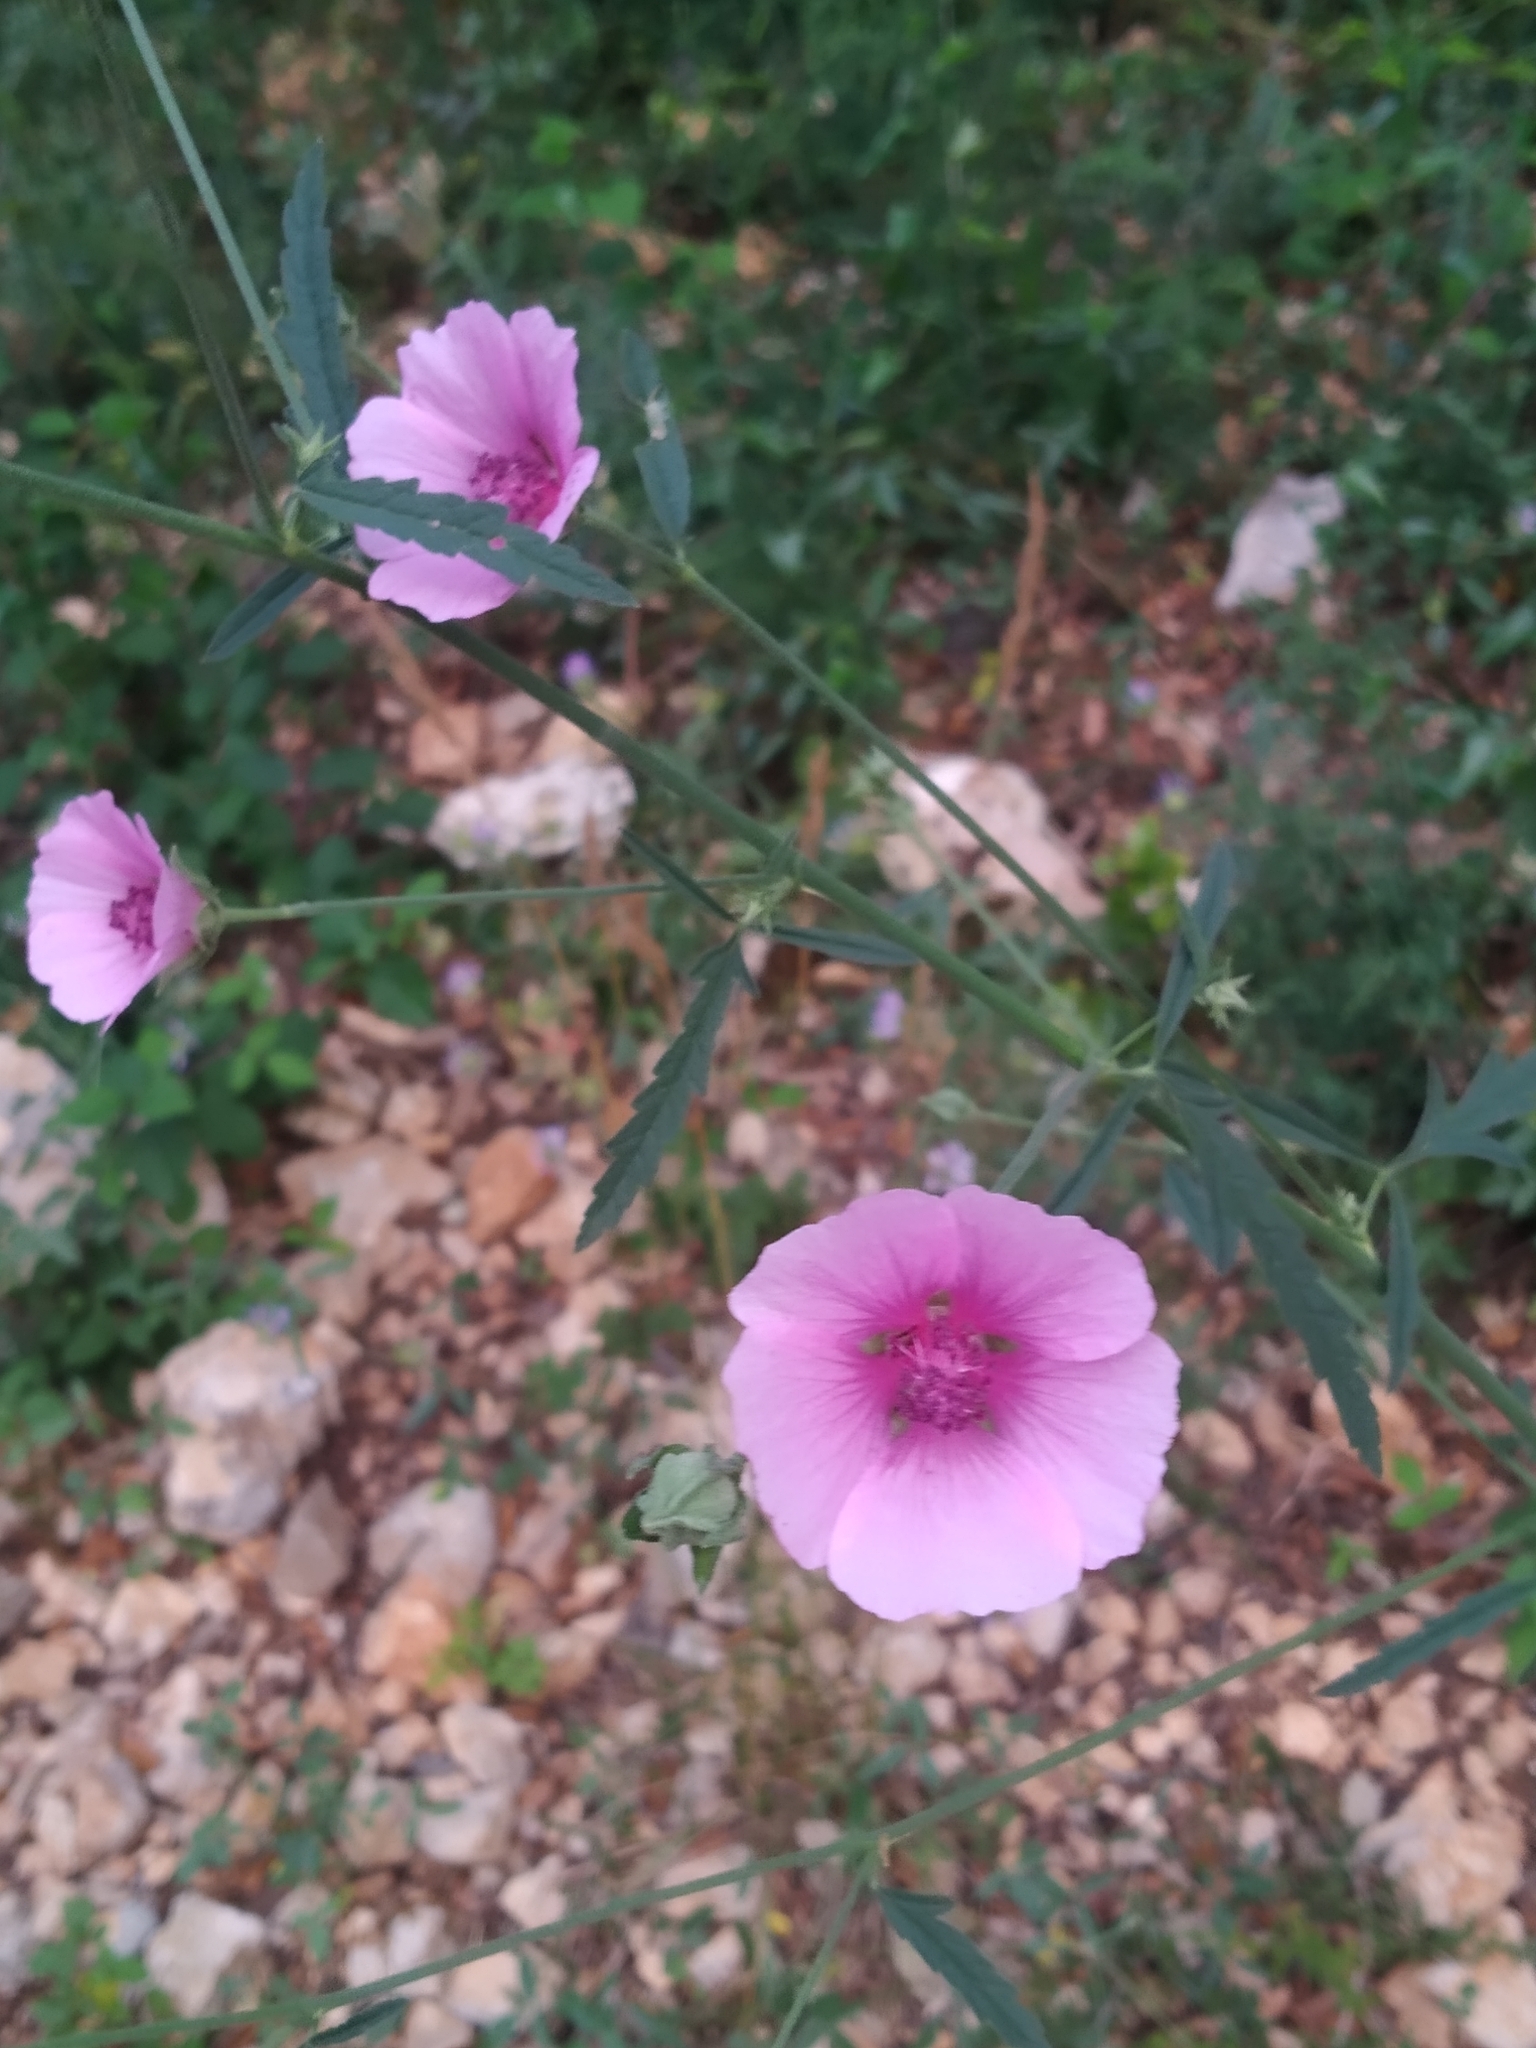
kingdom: Plantae
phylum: Tracheophyta
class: Magnoliopsida
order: Malvales
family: Malvaceae
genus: Althaea
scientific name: Althaea cannabina
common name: Palm-leaf marshmallow
